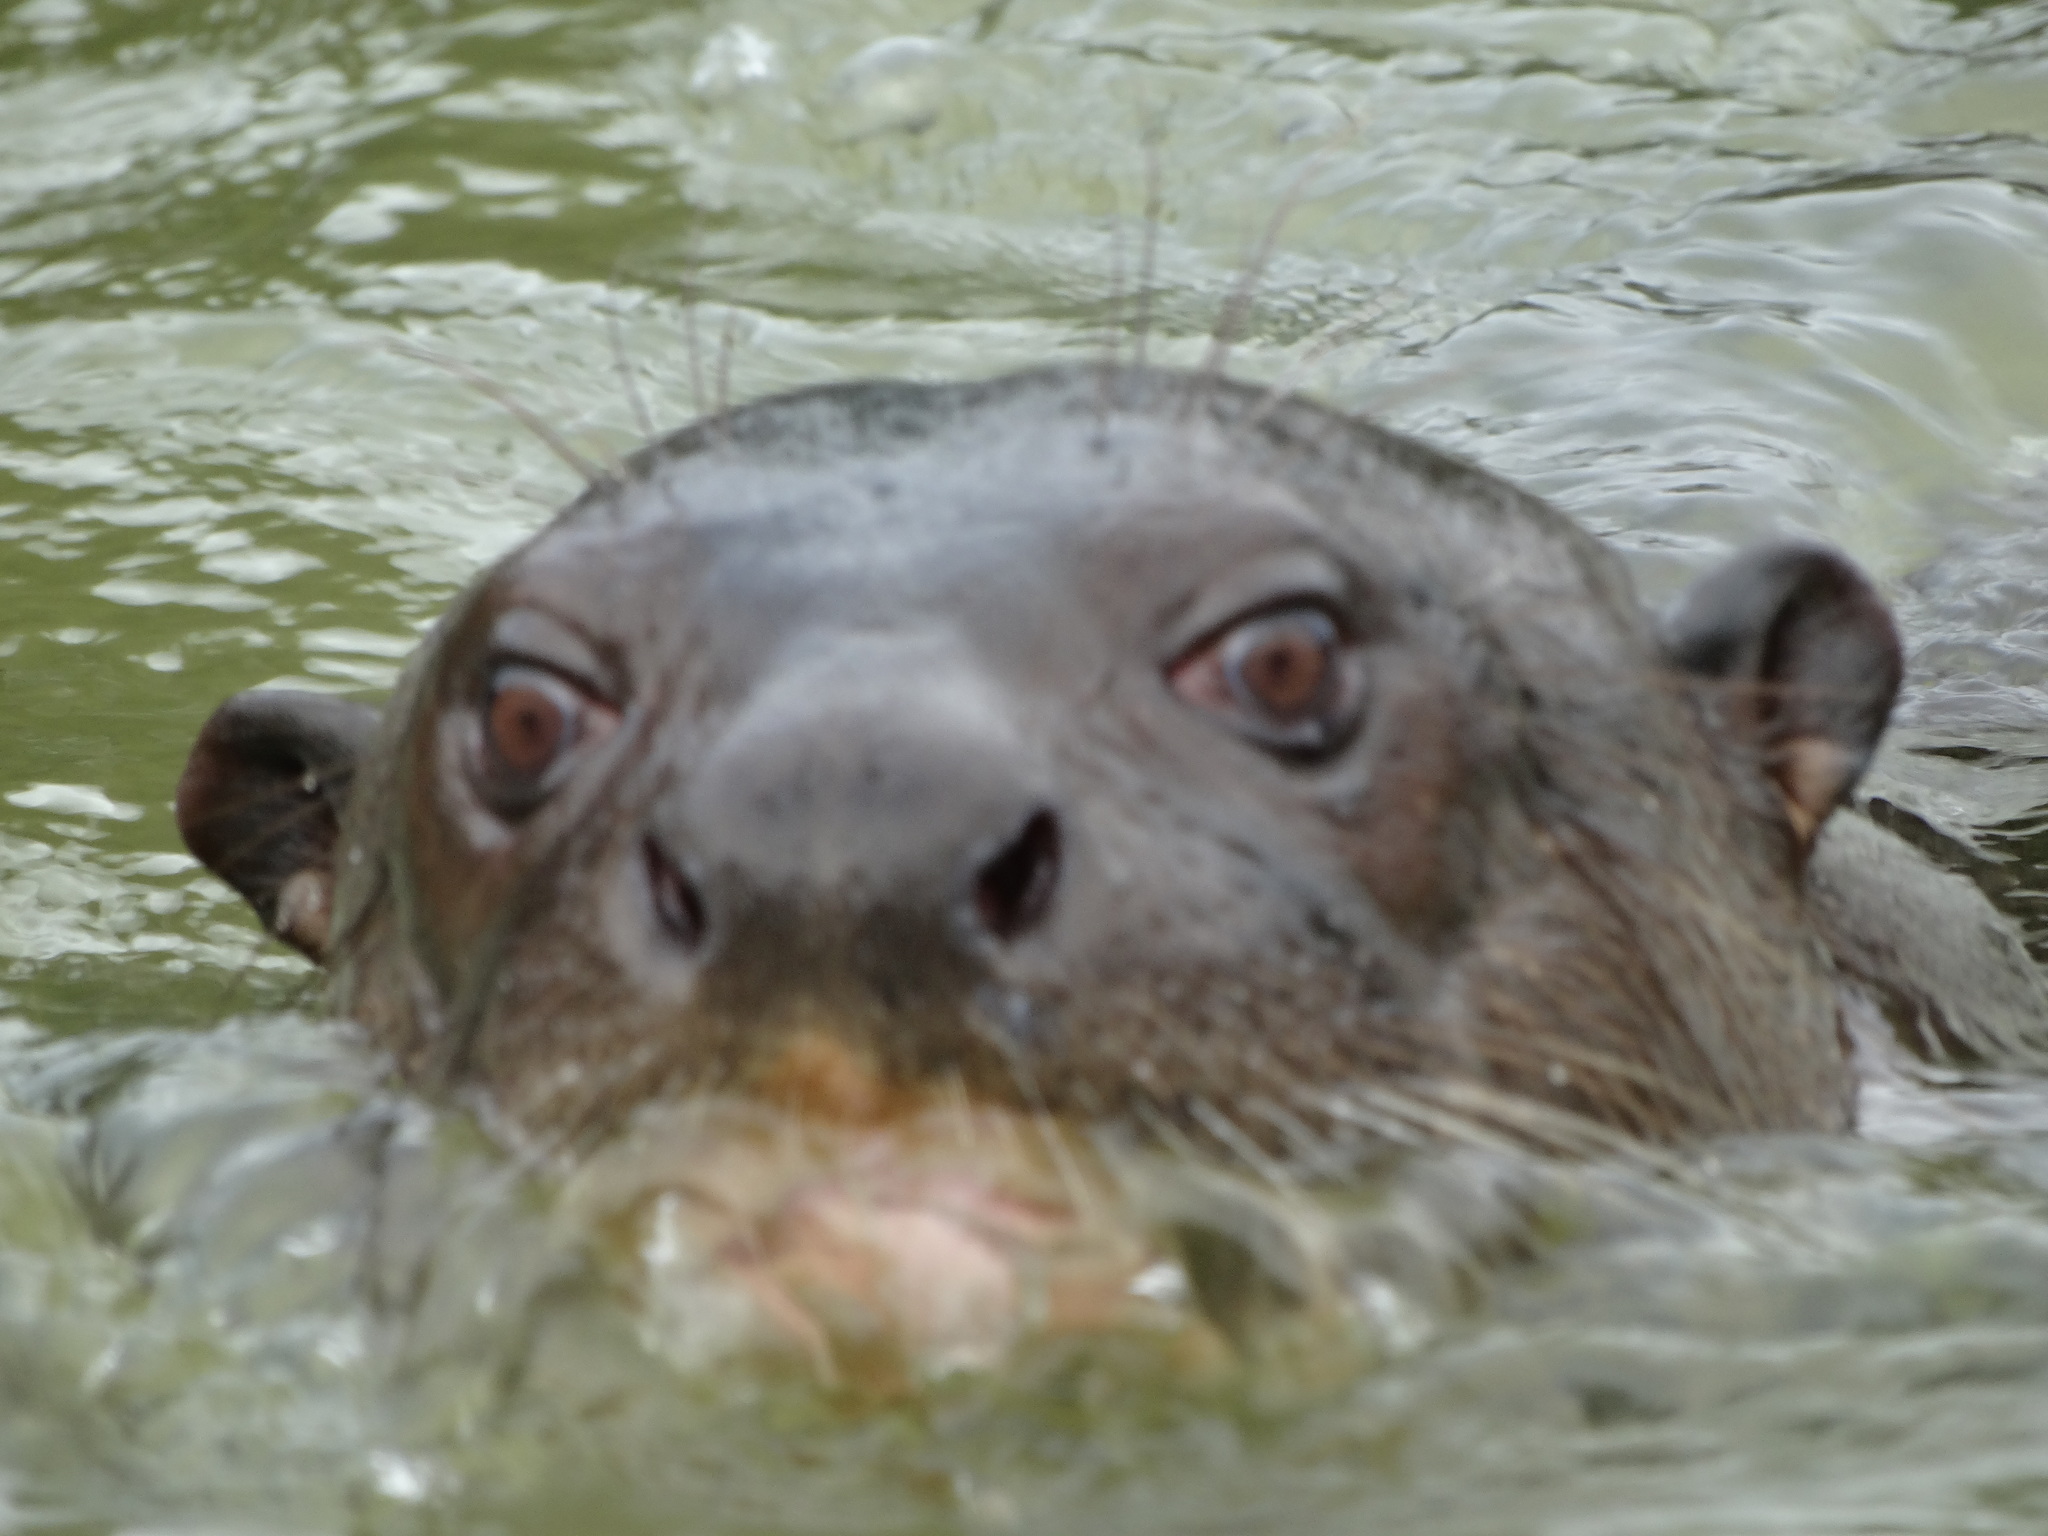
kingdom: Animalia
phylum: Chordata
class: Mammalia
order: Carnivora
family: Mustelidae
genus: Pteronura
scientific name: Pteronura brasiliensis
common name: Giant otter
